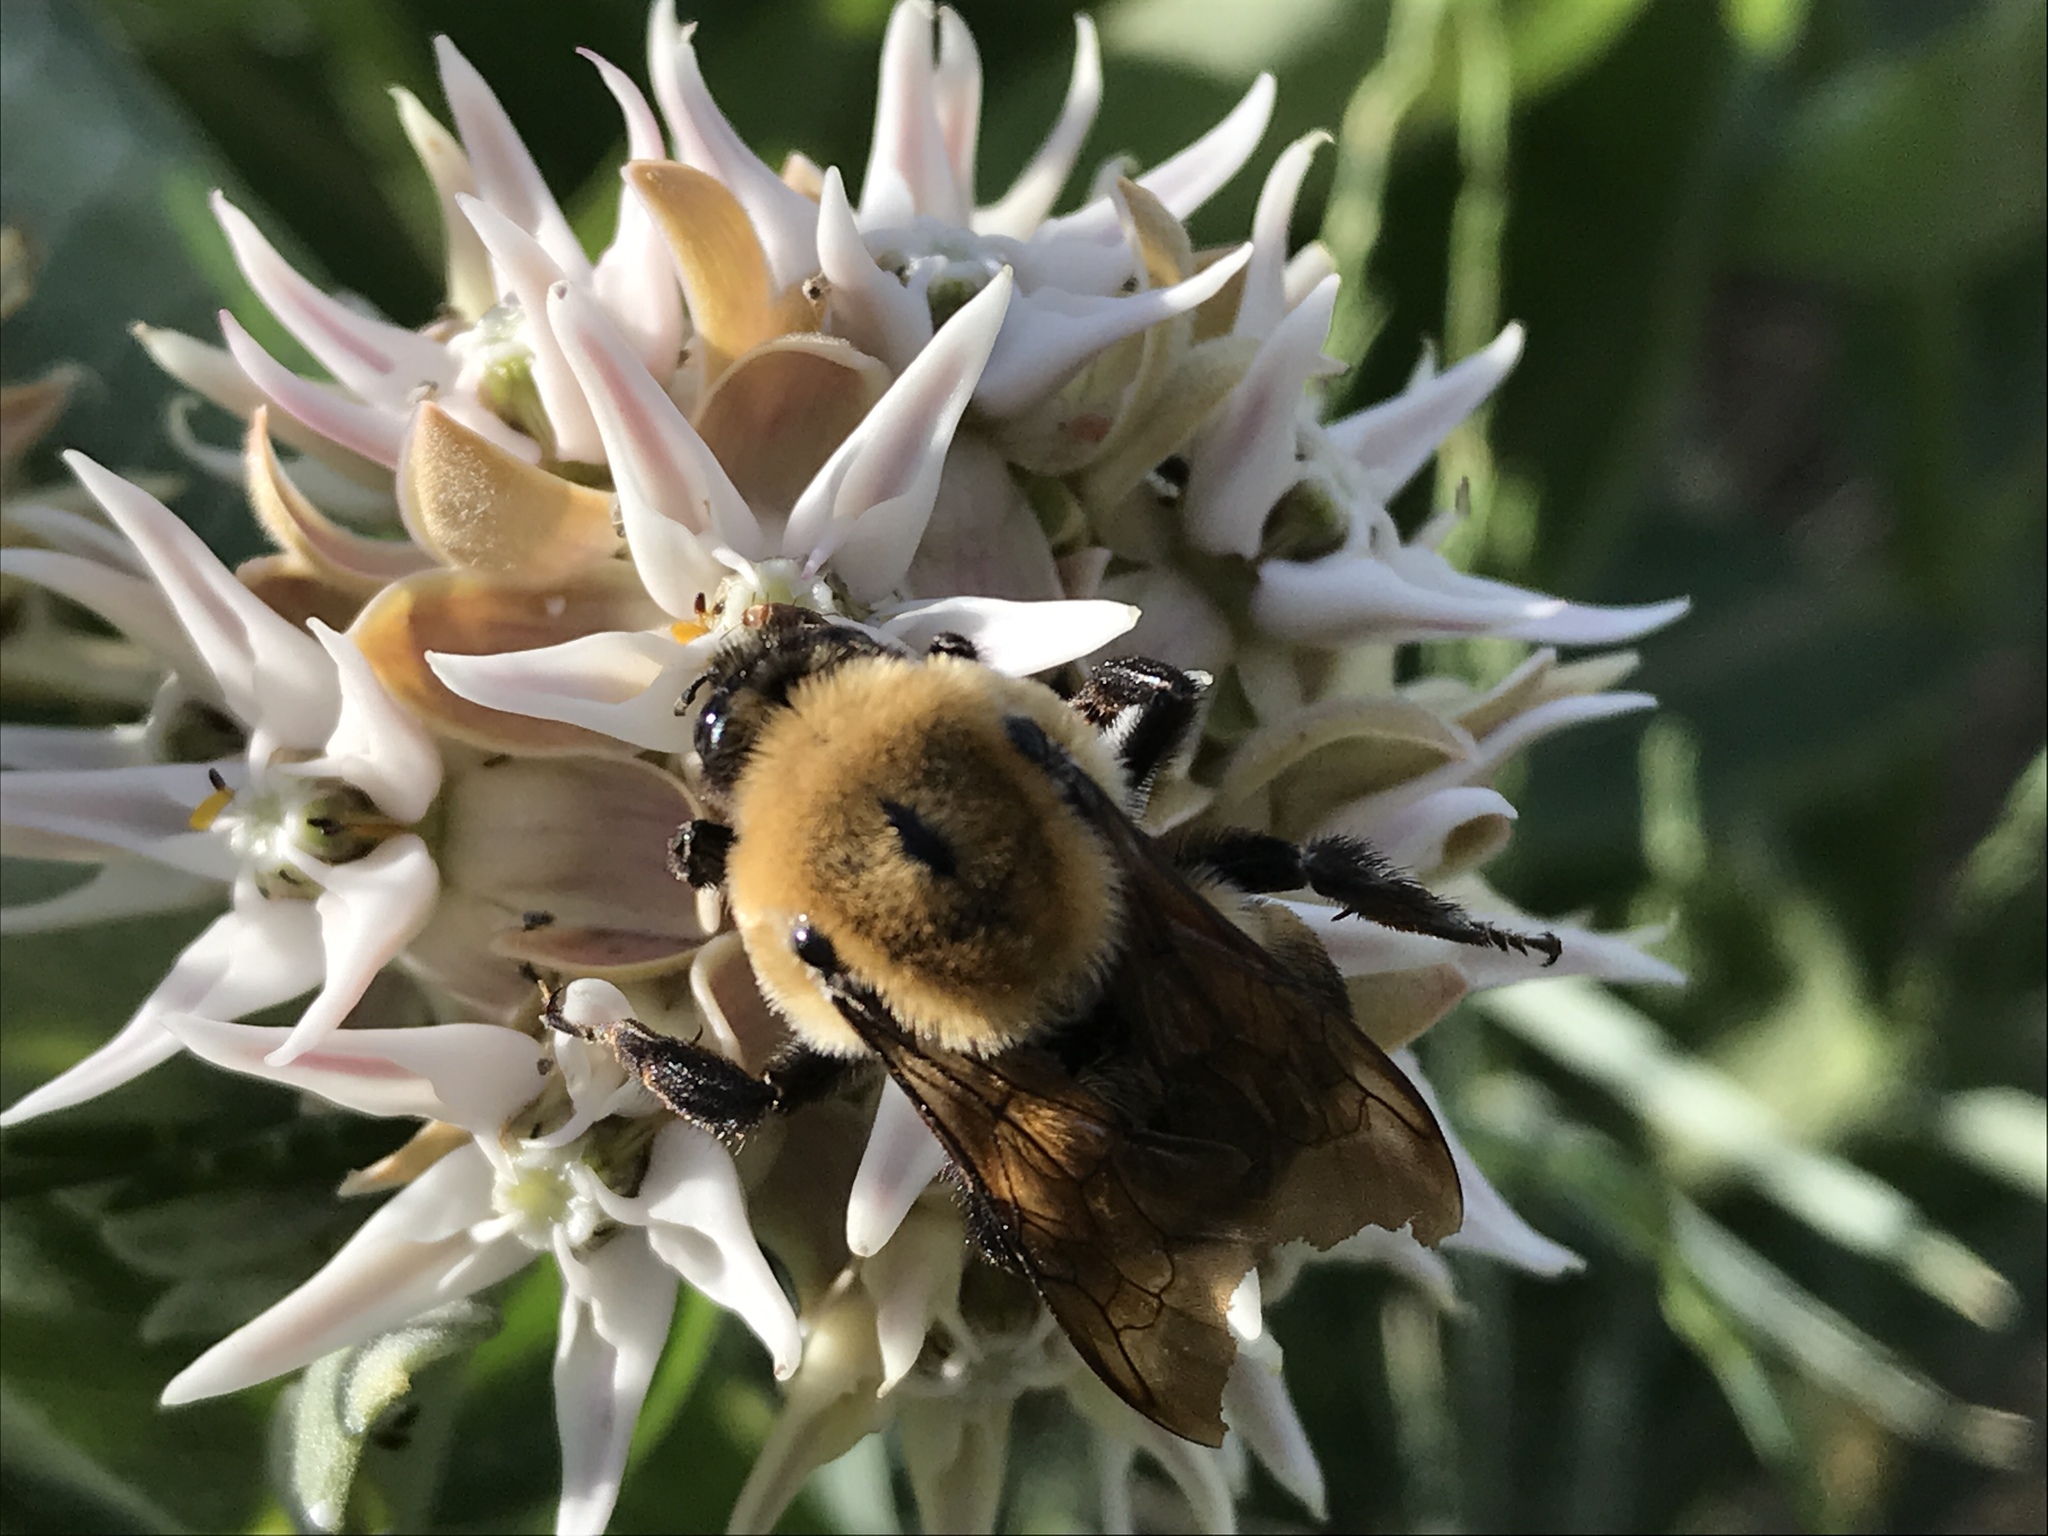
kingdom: Animalia
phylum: Arthropoda
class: Insecta
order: Hymenoptera
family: Apidae
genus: Bombus
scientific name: Bombus griseocollis
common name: Brown-belted bumble bee
